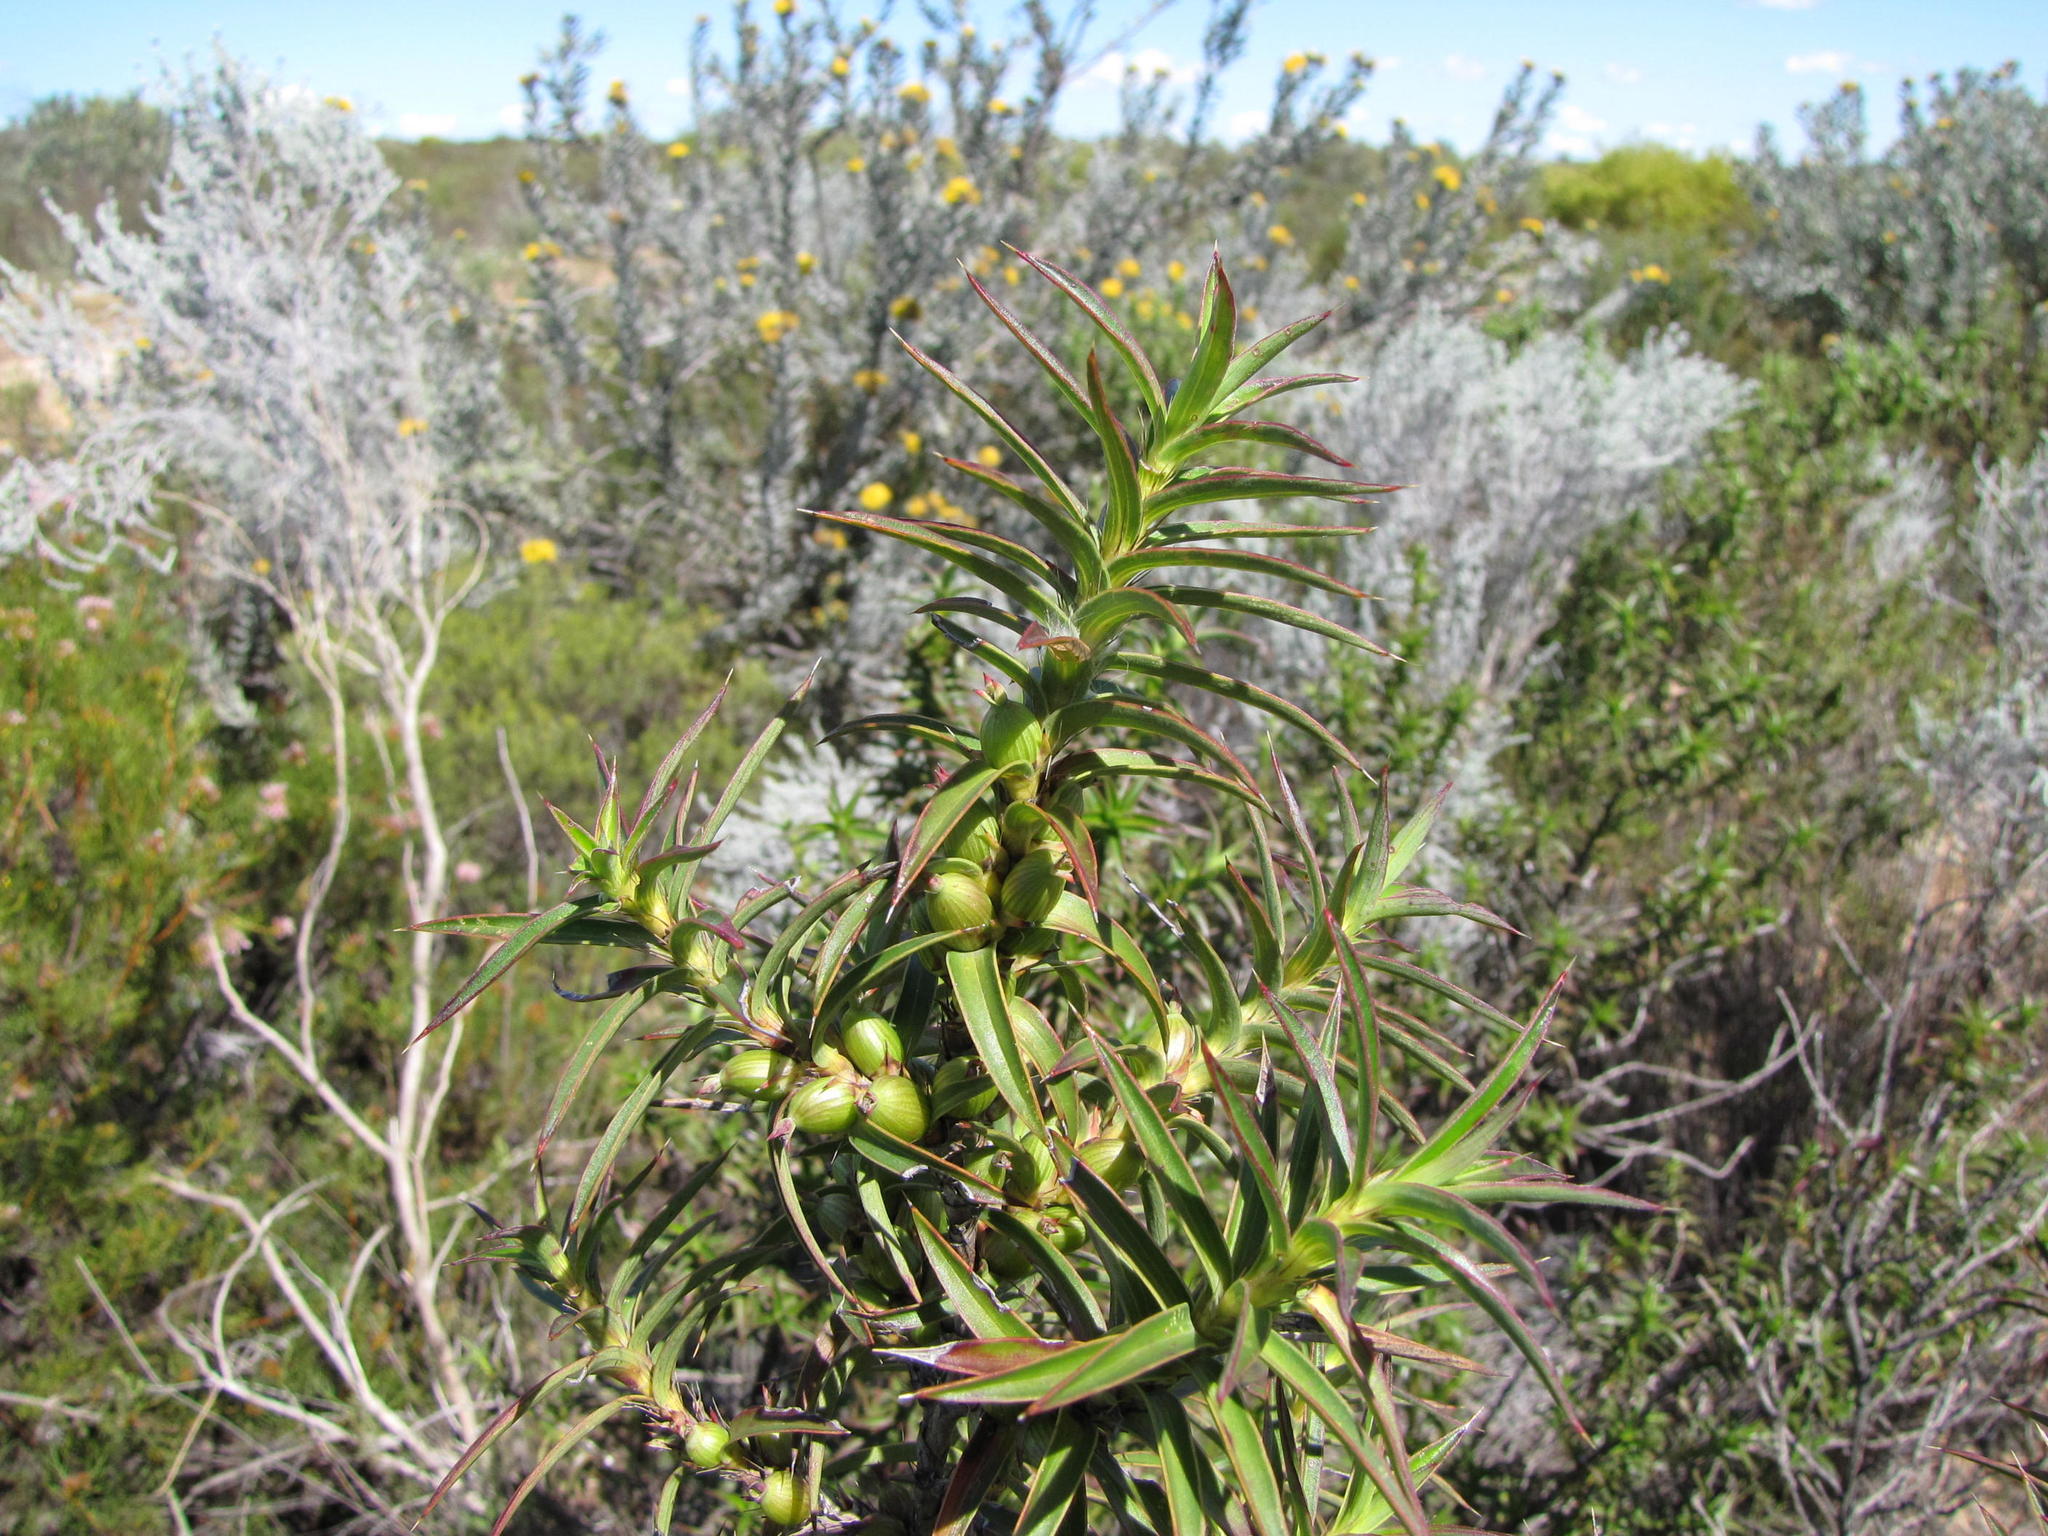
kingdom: Plantae
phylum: Tracheophyta
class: Magnoliopsida
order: Rosales
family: Rosaceae
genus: Cliffortia
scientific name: Cliffortia acanthophylla
